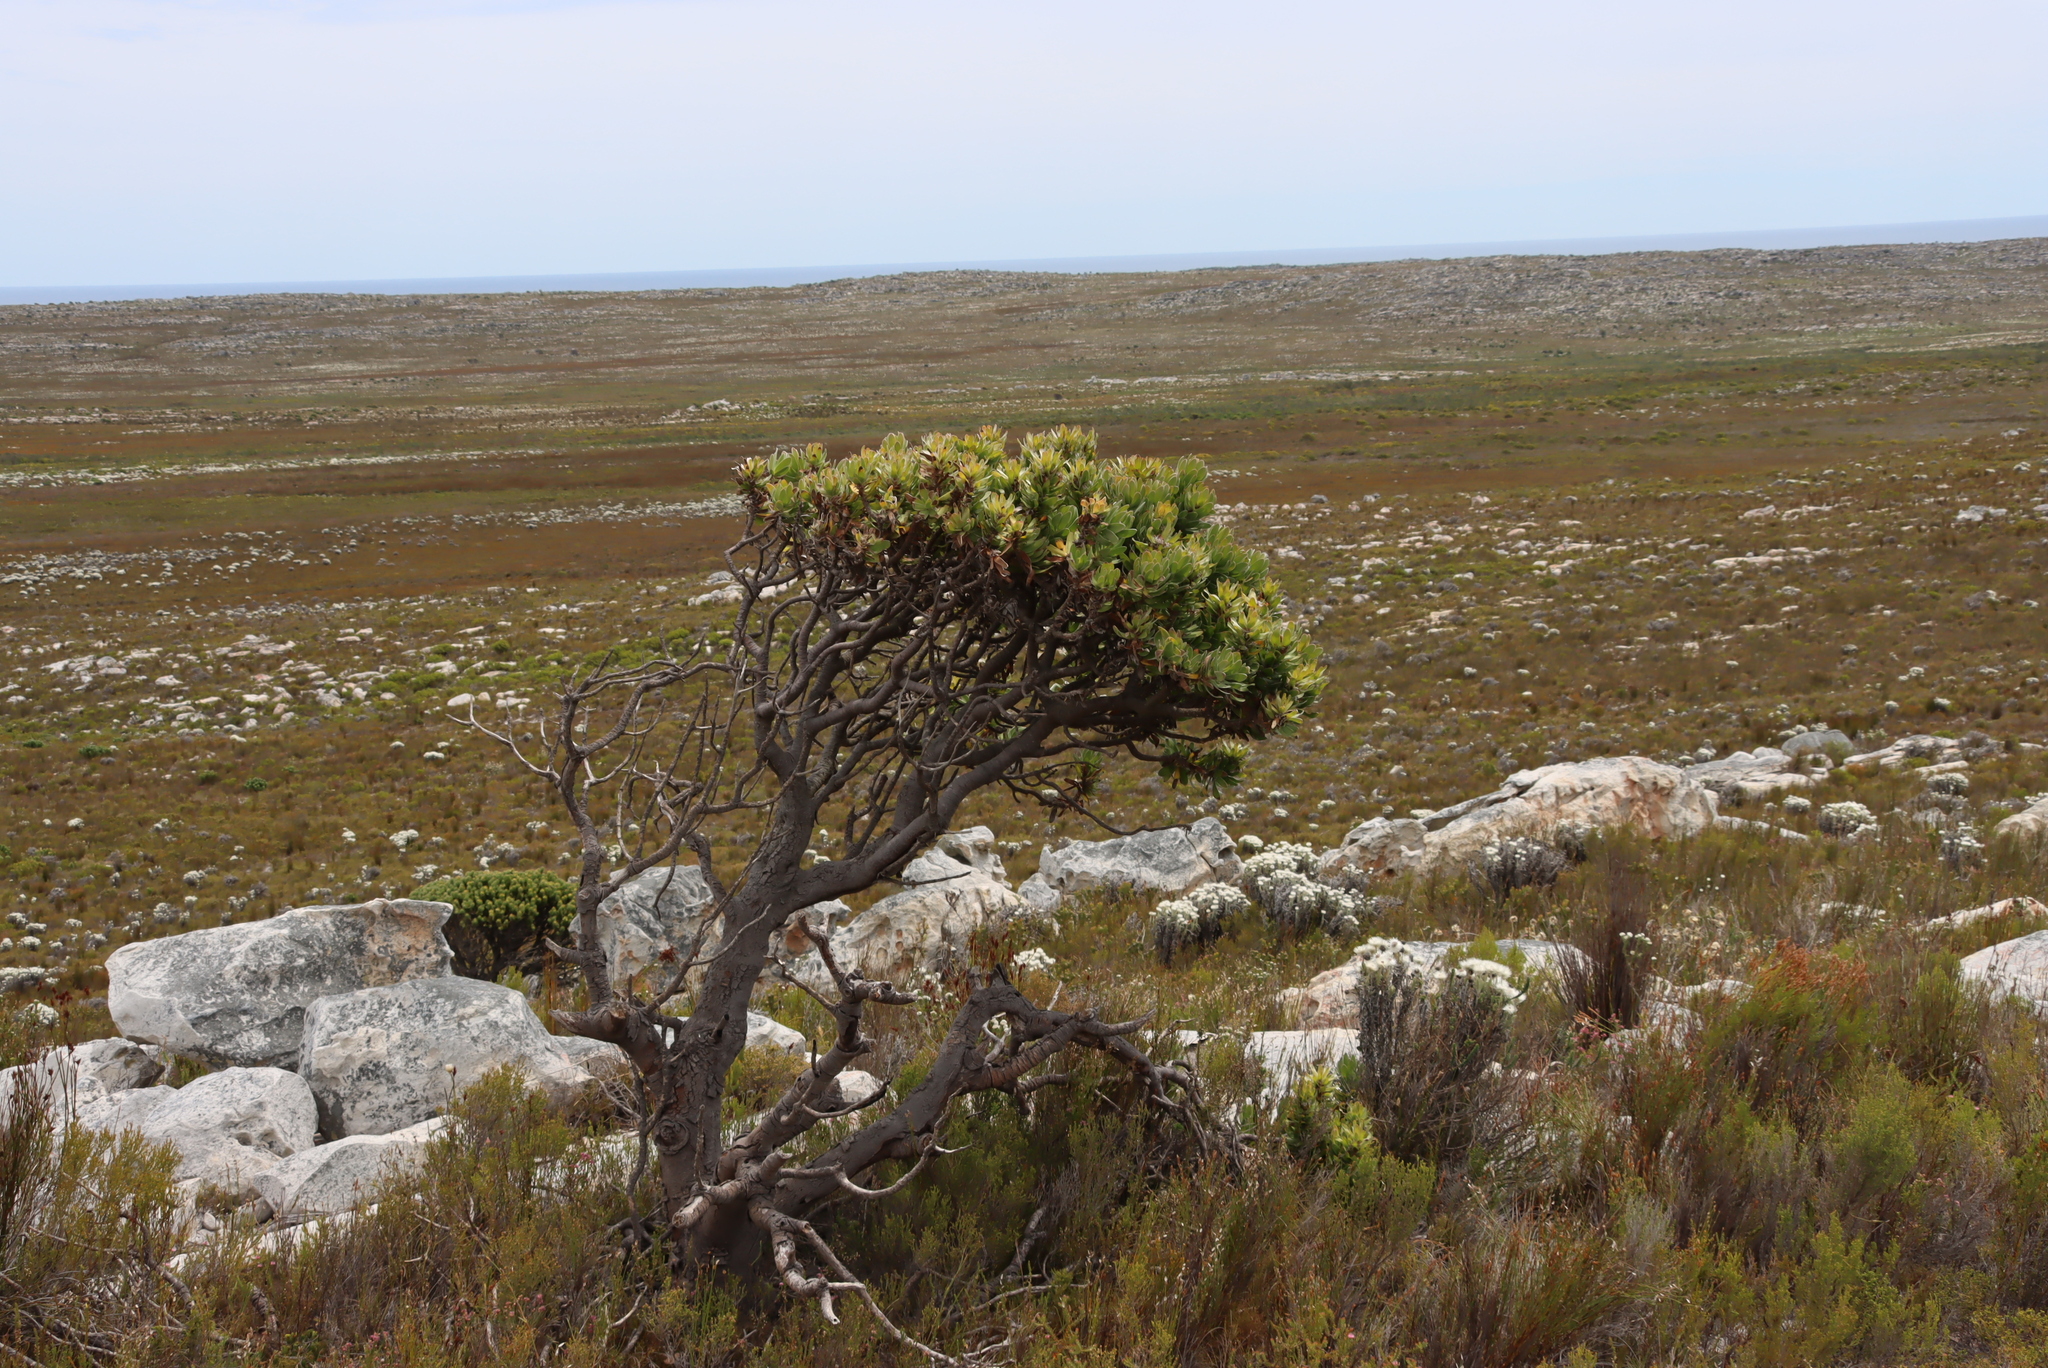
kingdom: Plantae
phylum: Tracheophyta
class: Magnoliopsida
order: Proteales
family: Proteaceae
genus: Mimetes
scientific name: Mimetes fimbriifolius
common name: Fringed bottlebrush
